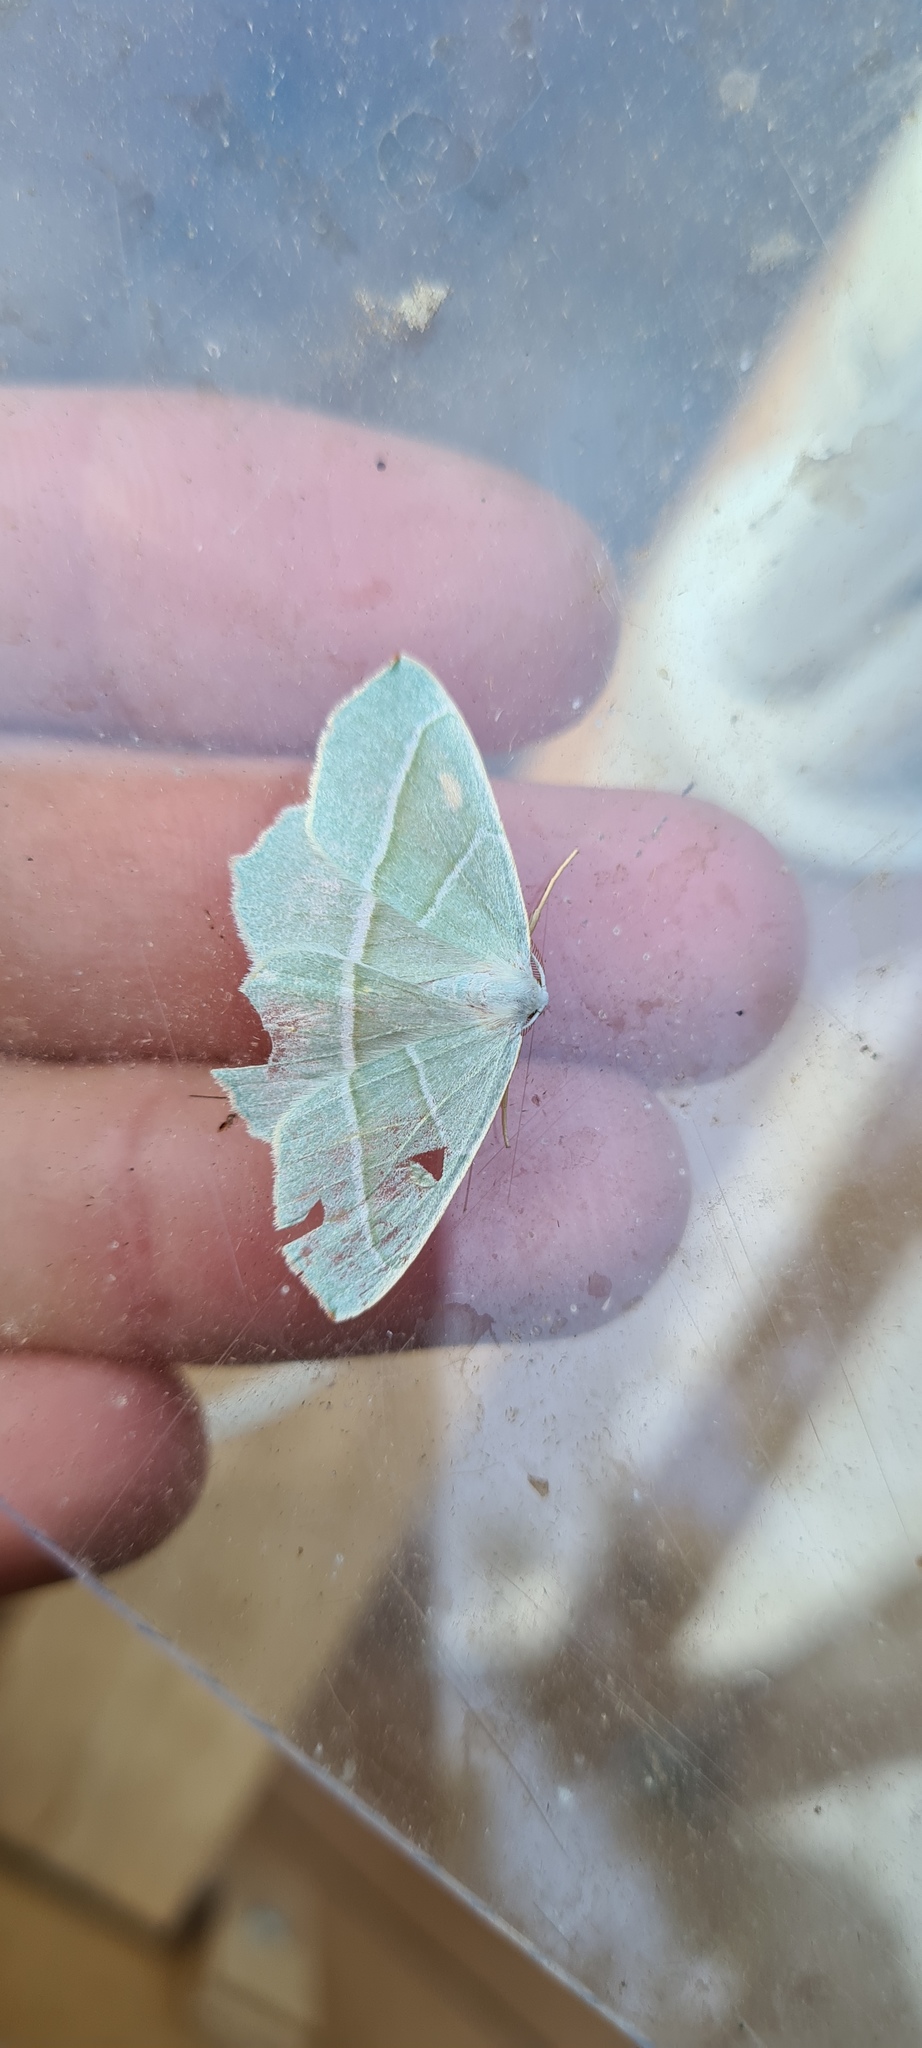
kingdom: Animalia
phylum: Arthropoda
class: Insecta
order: Lepidoptera
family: Geometridae
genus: Campaea
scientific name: Campaea margaritaria
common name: Light emerald
